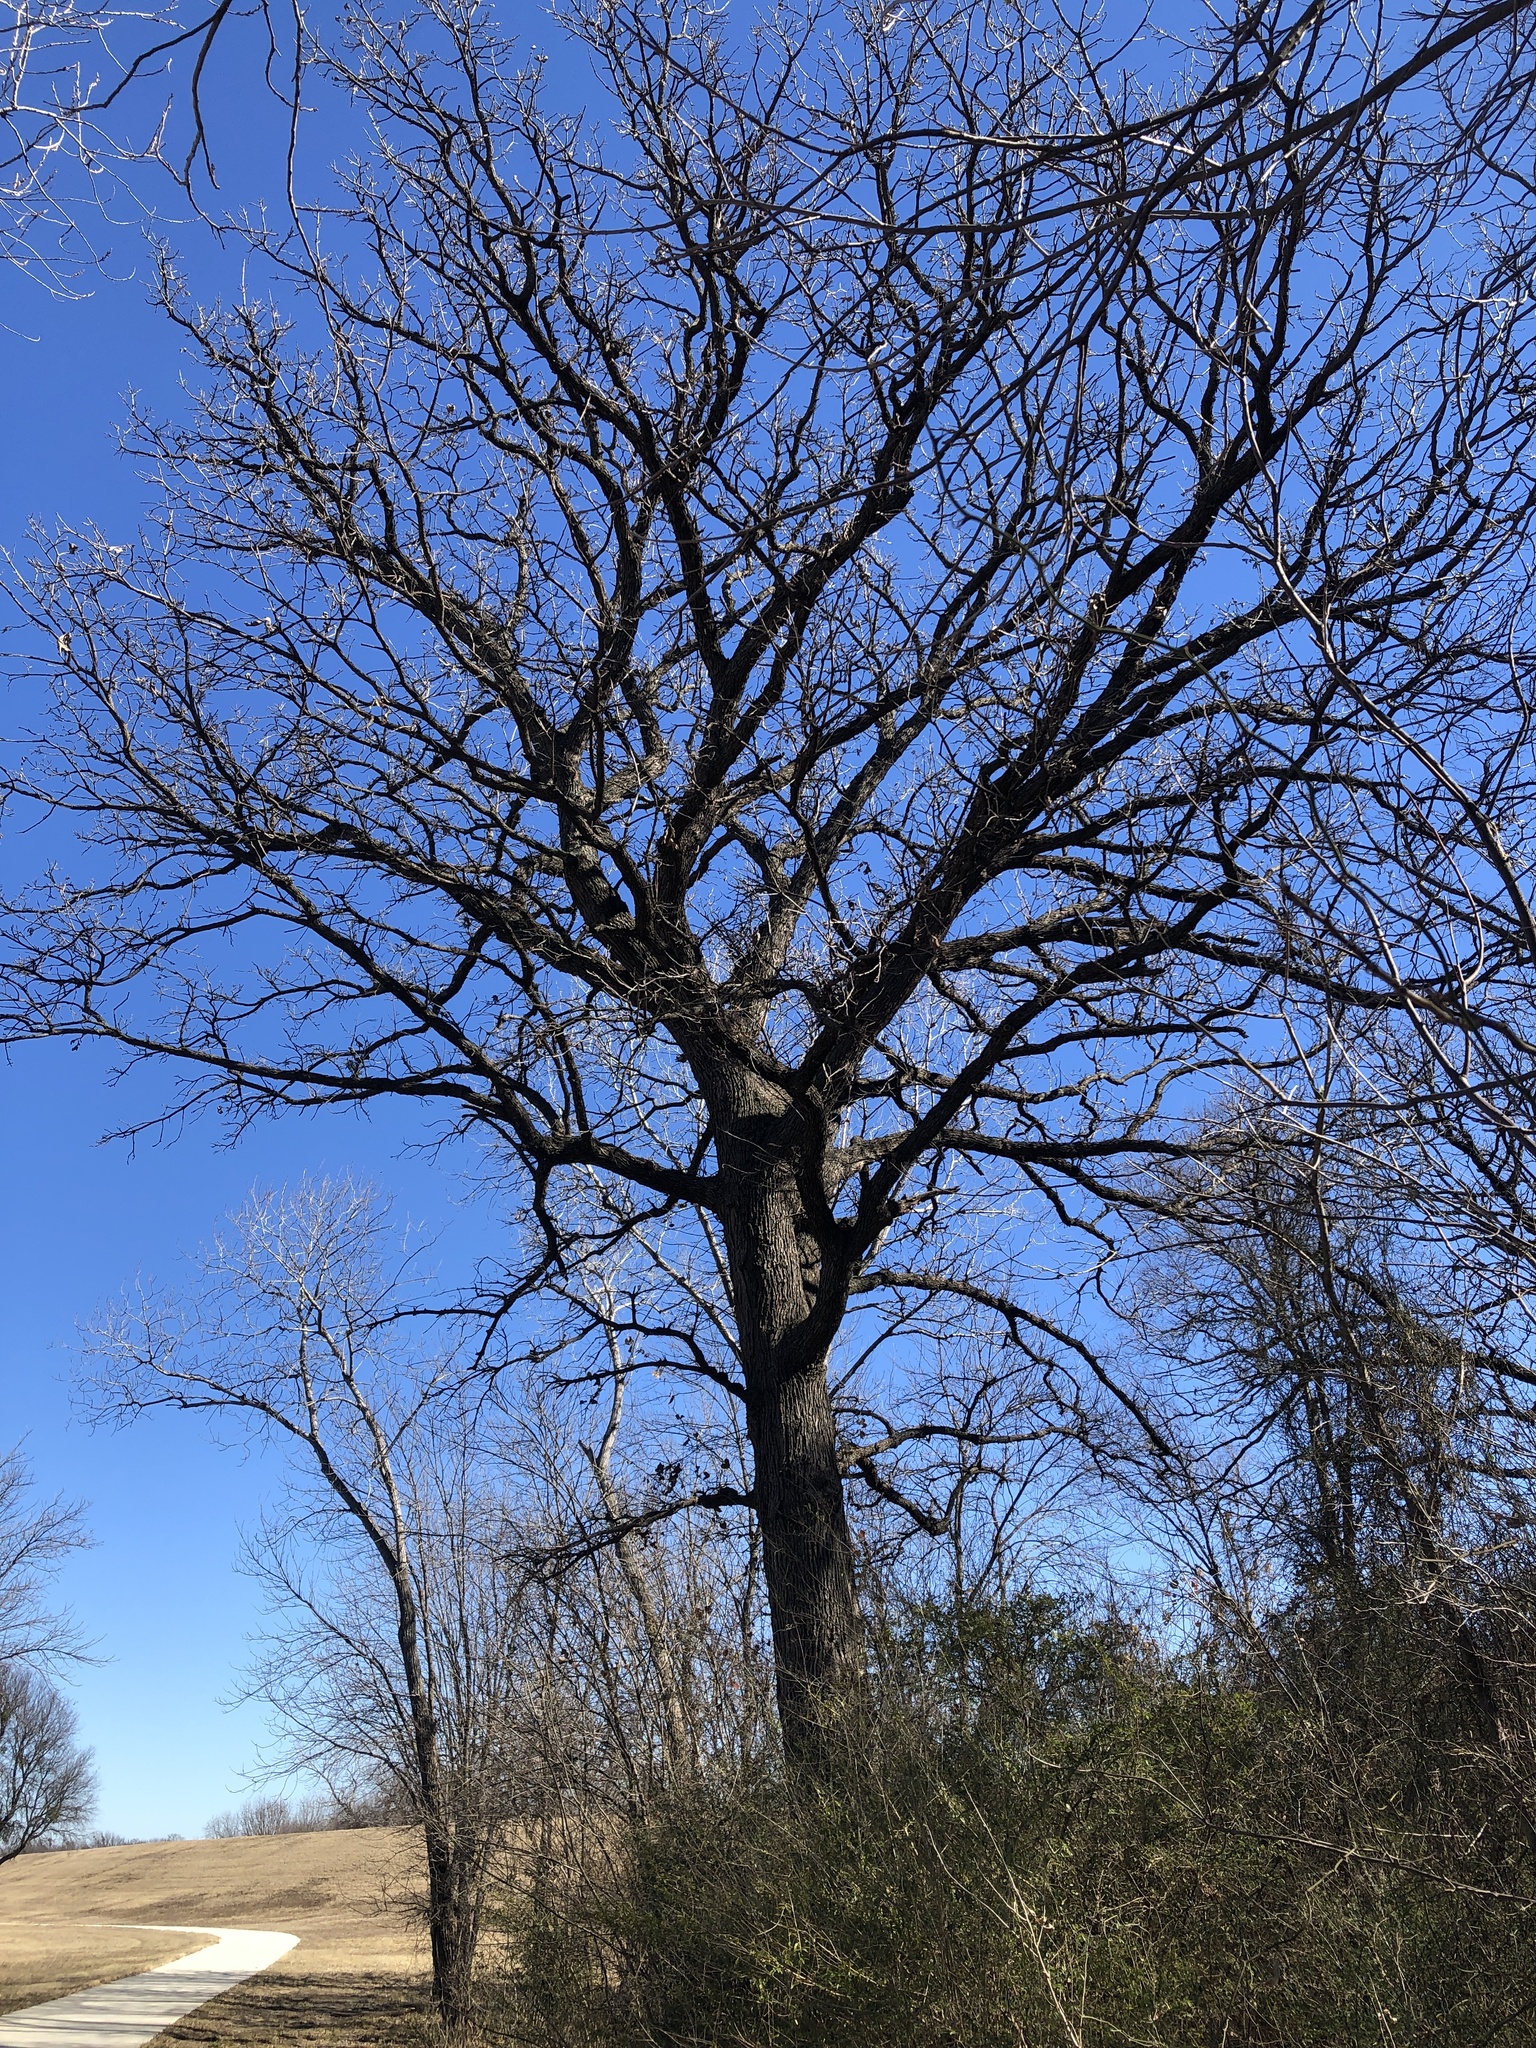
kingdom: Plantae
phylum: Tracheophyta
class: Magnoliopsida
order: Fagales
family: Fagaceae
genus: Quercus
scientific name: Quercus macrocarpa
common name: Bur oak
